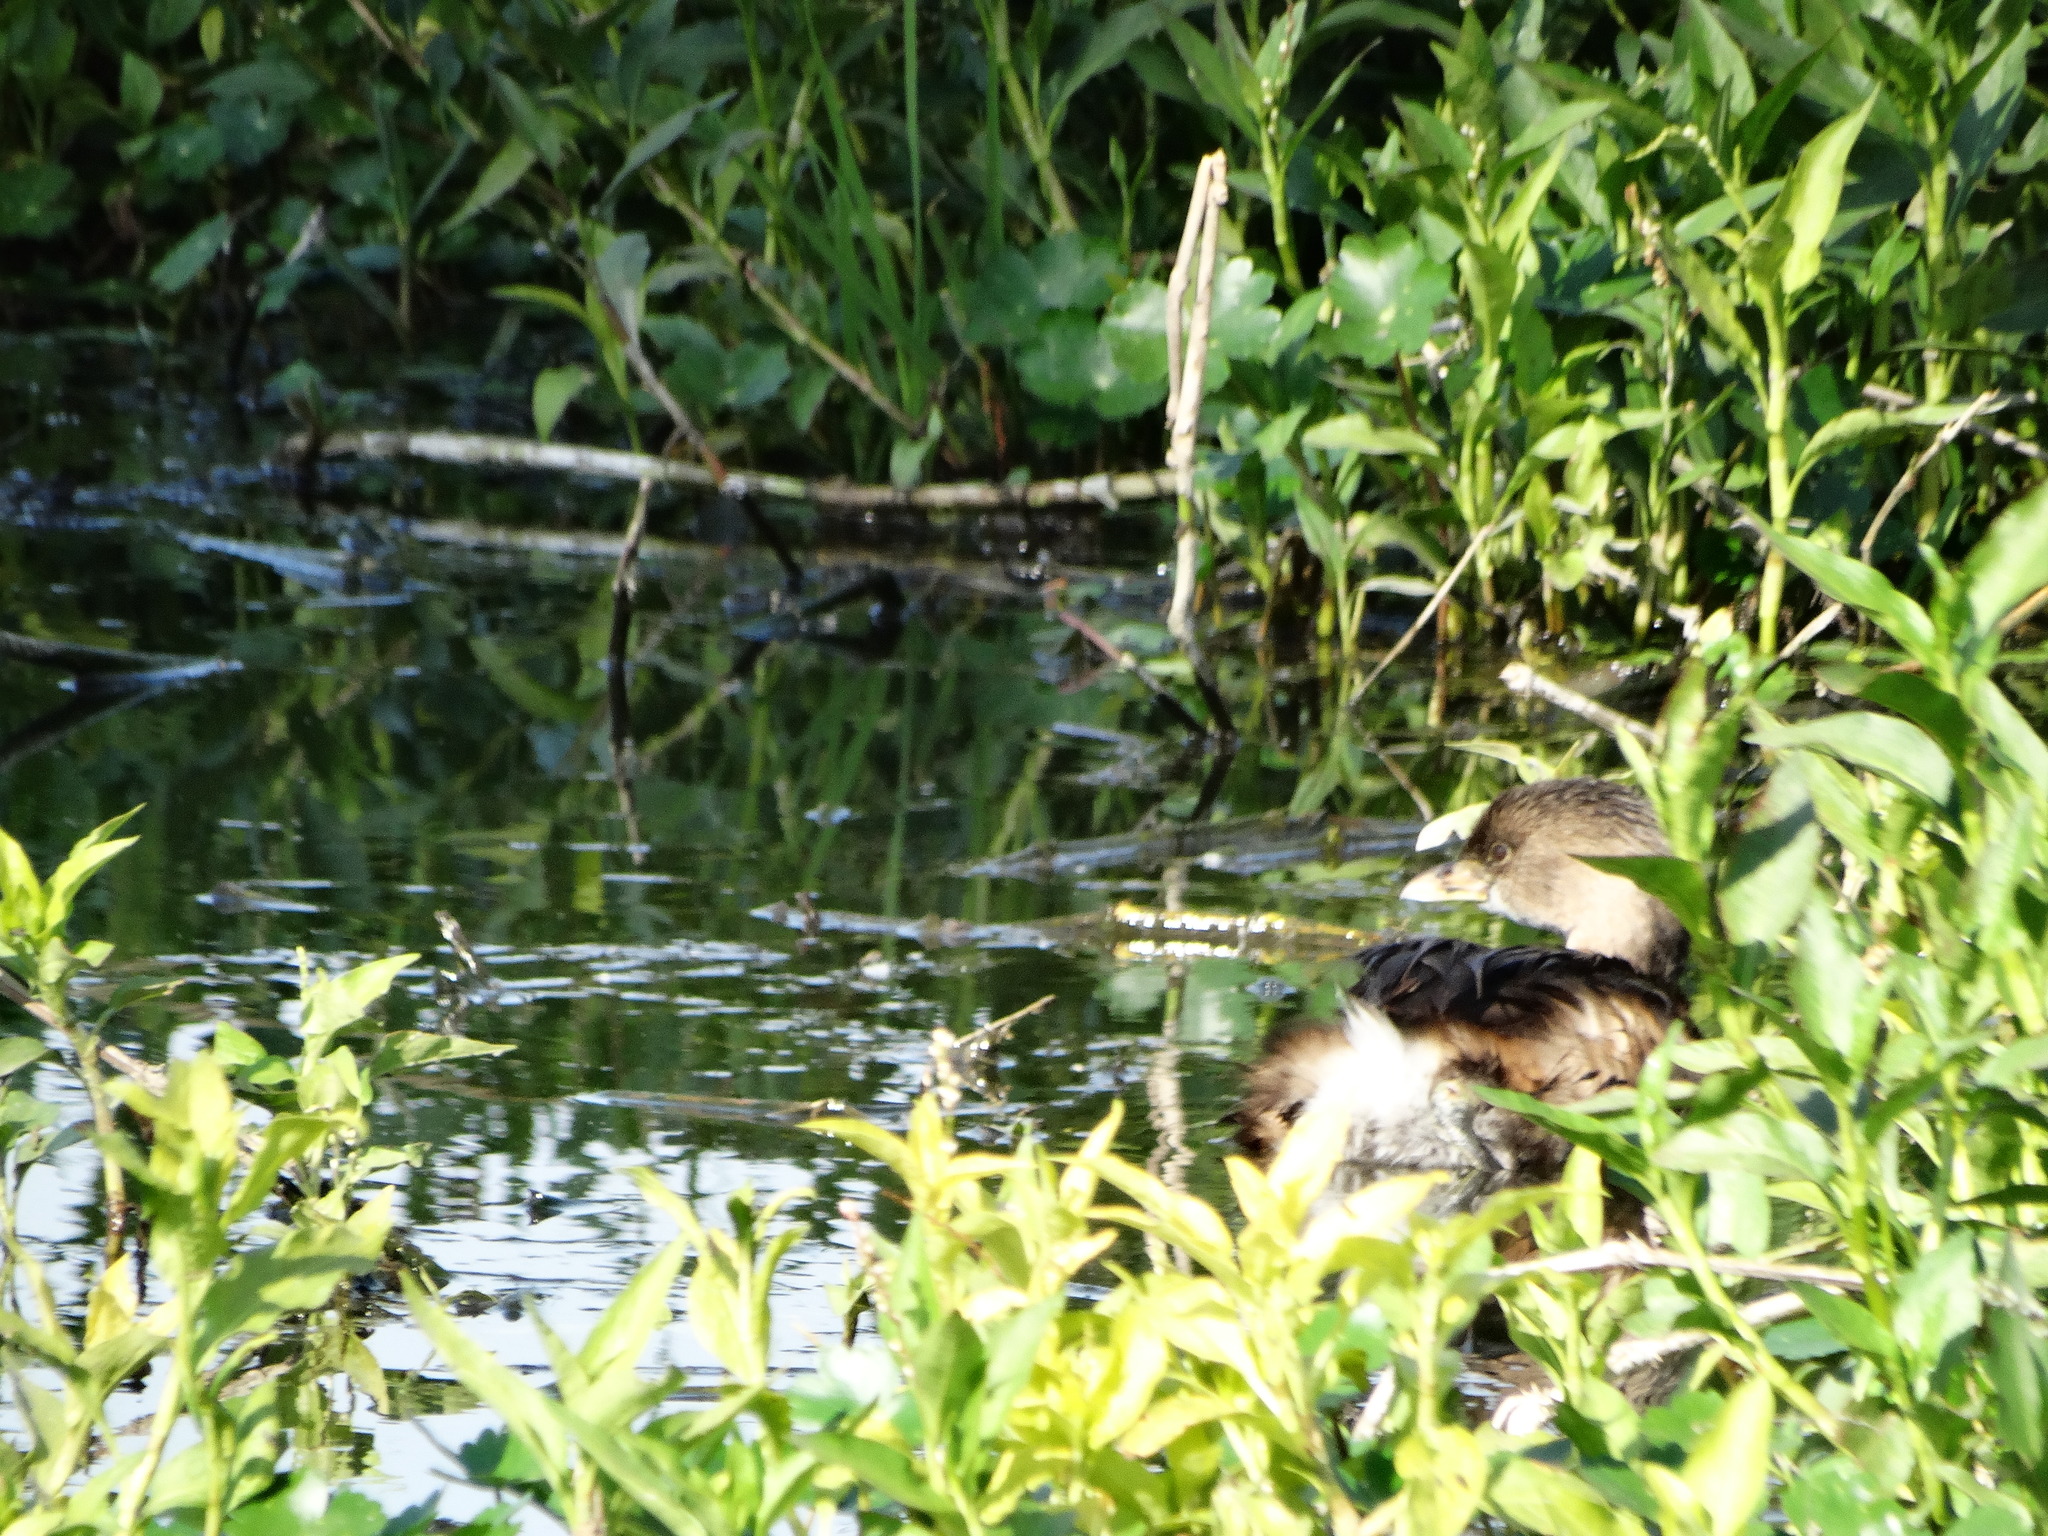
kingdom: Animalia
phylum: Chordata
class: Aves
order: Podicipediformes
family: Podicipedidae
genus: Podilymbus
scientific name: Podilymbus podiceps
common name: Pied-billed grebe
